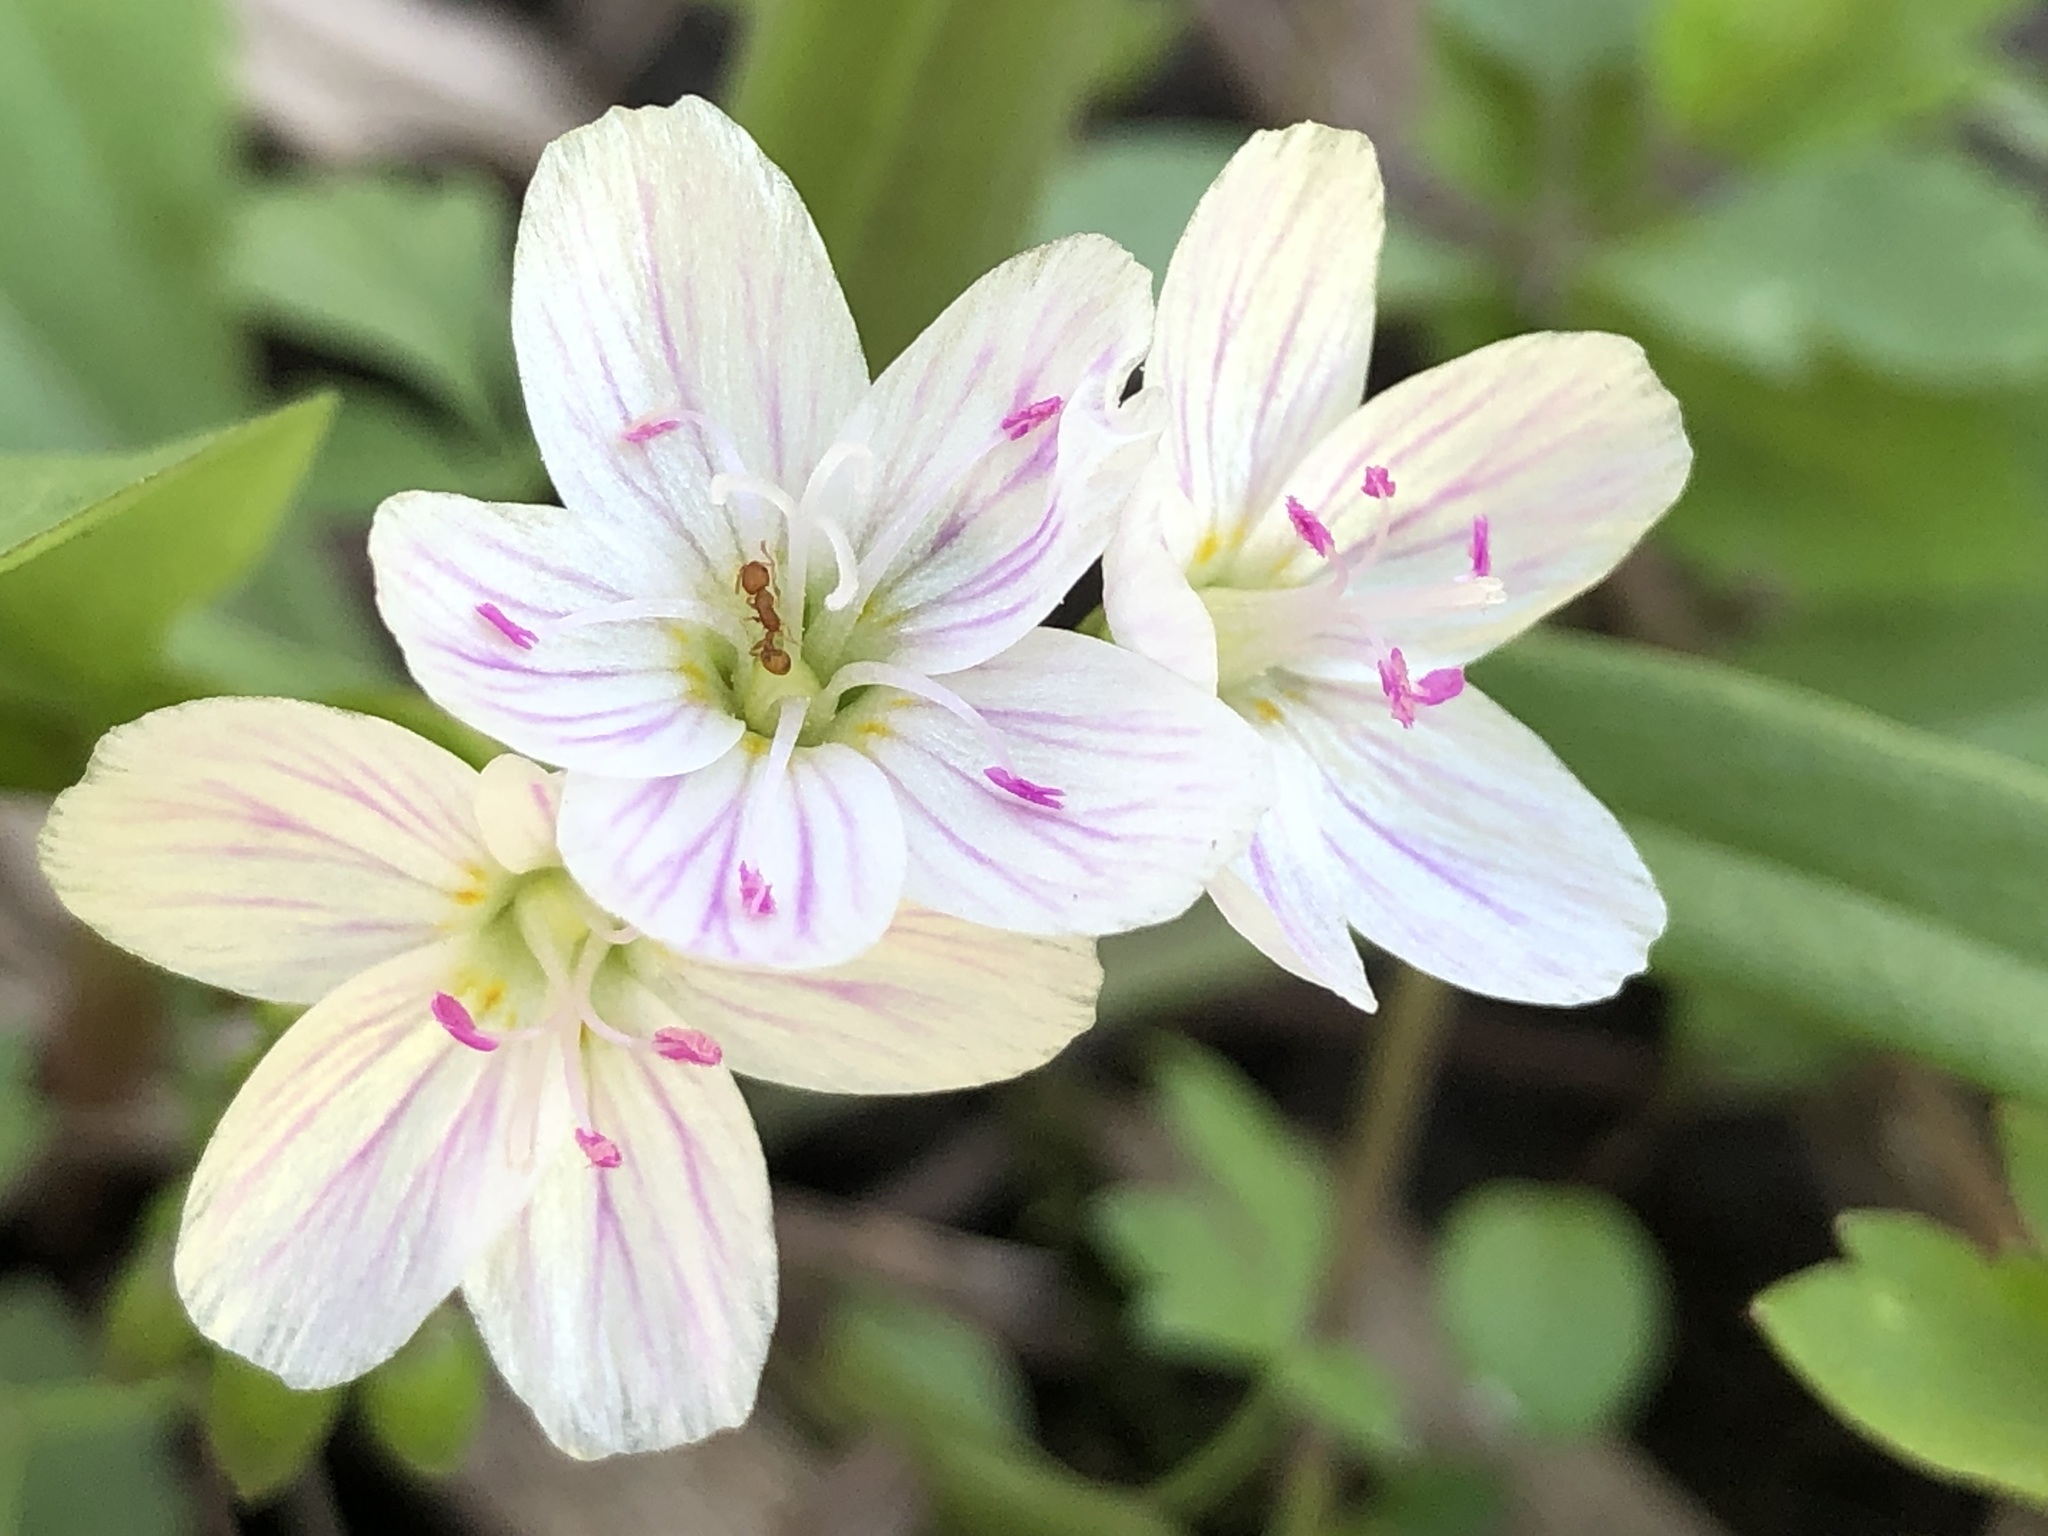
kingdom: Plantae
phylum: Tracheophyta
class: Magnoliopsida
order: Caryophyllales
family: Montiaceae
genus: Claytonia
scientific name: Claytonia virginica
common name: Virginia springbeauty
